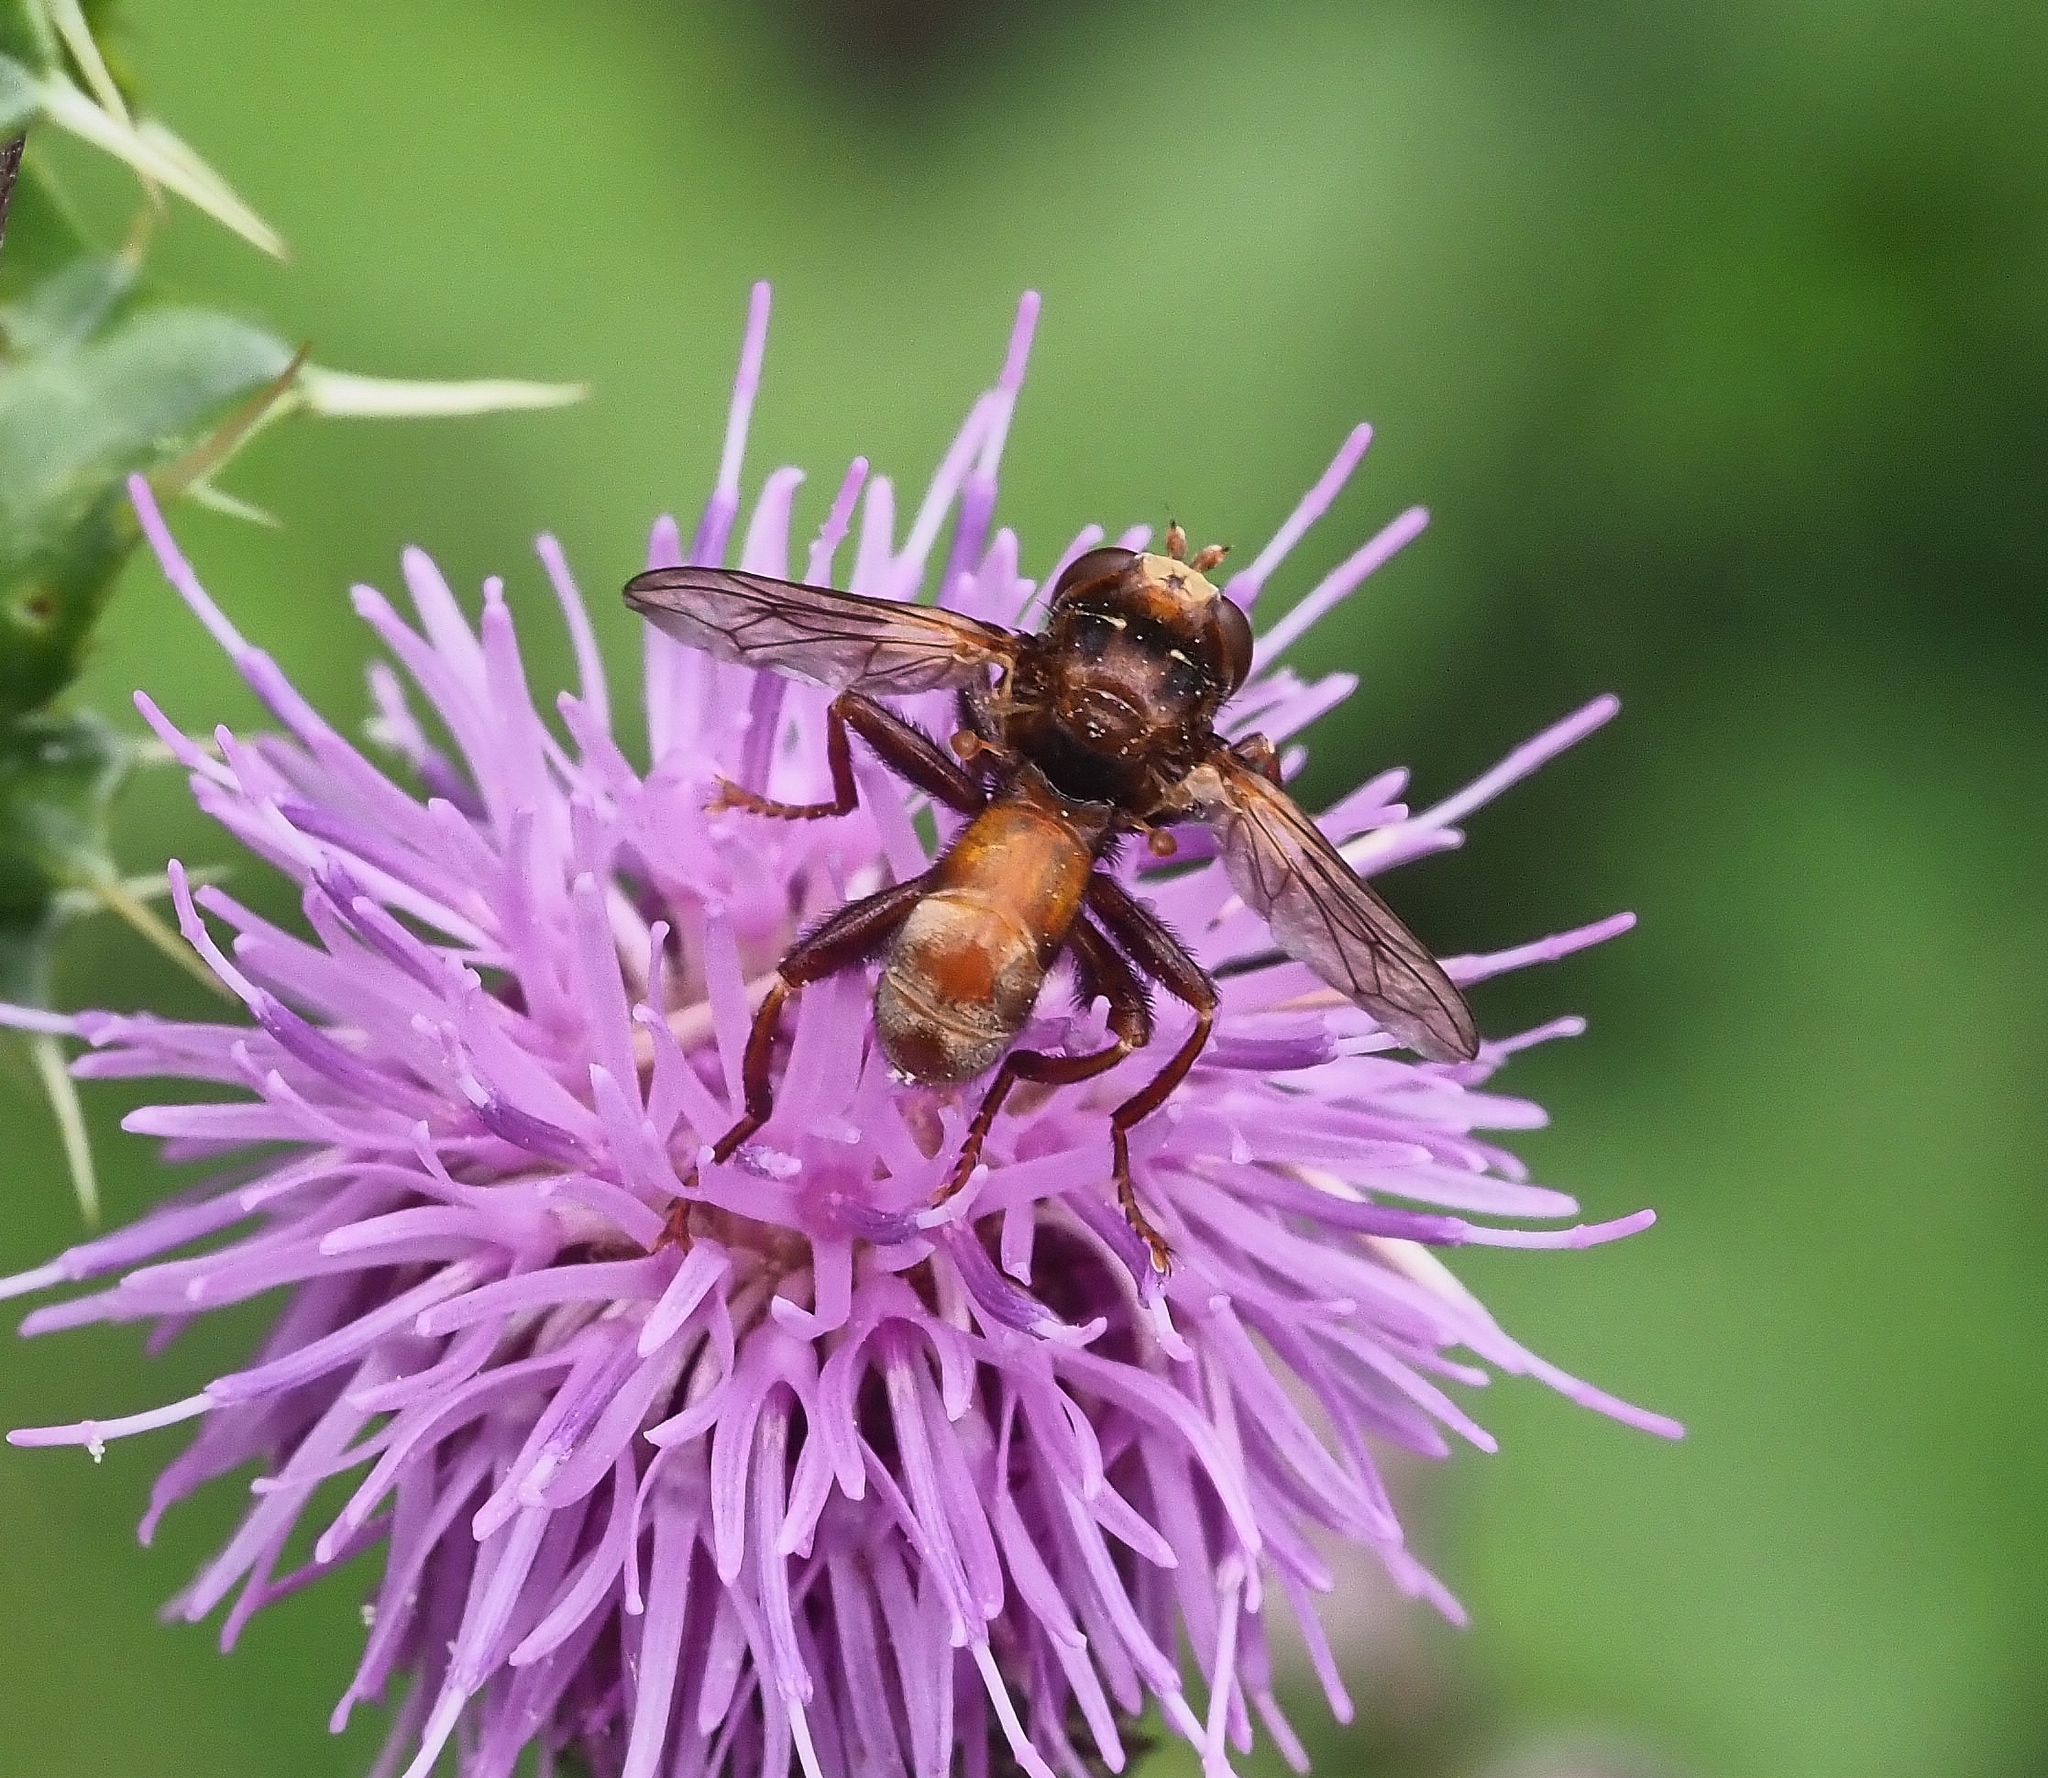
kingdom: Animalia
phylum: Arthropoda
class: Insecta
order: Diptera
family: Conopidae
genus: Sicus
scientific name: Sicus ferrugineus
